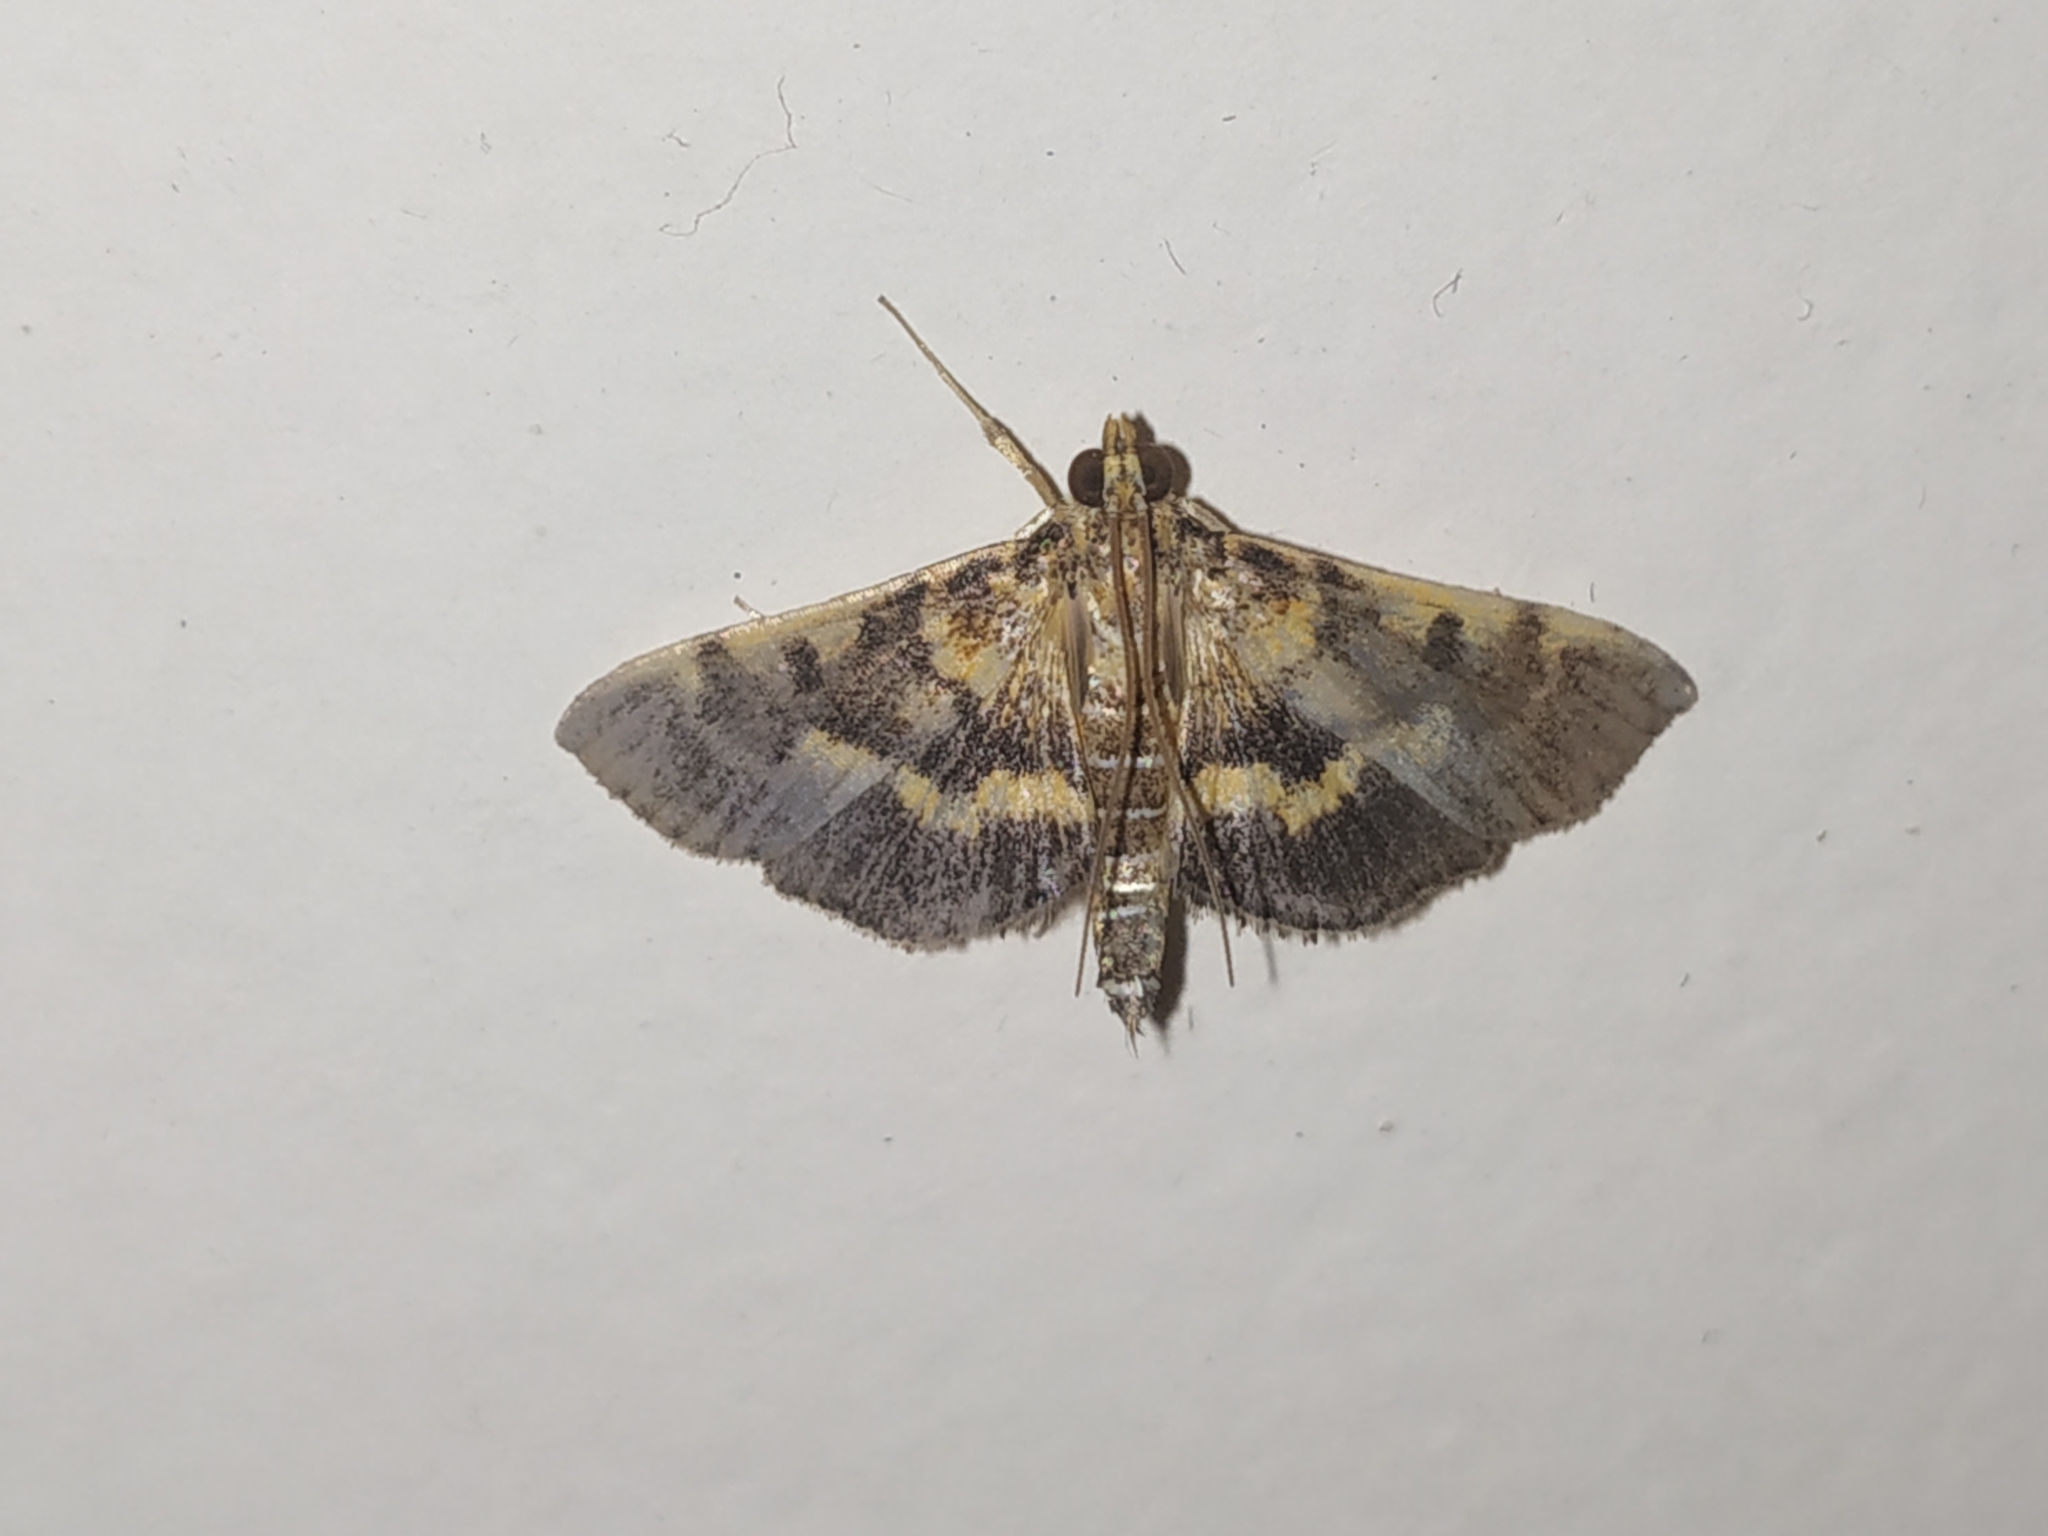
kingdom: Animalia
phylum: Arthropoda
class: Insecta
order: Lepidoptera
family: Crambidae
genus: Omiodes
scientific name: Omiodes diemenalis
